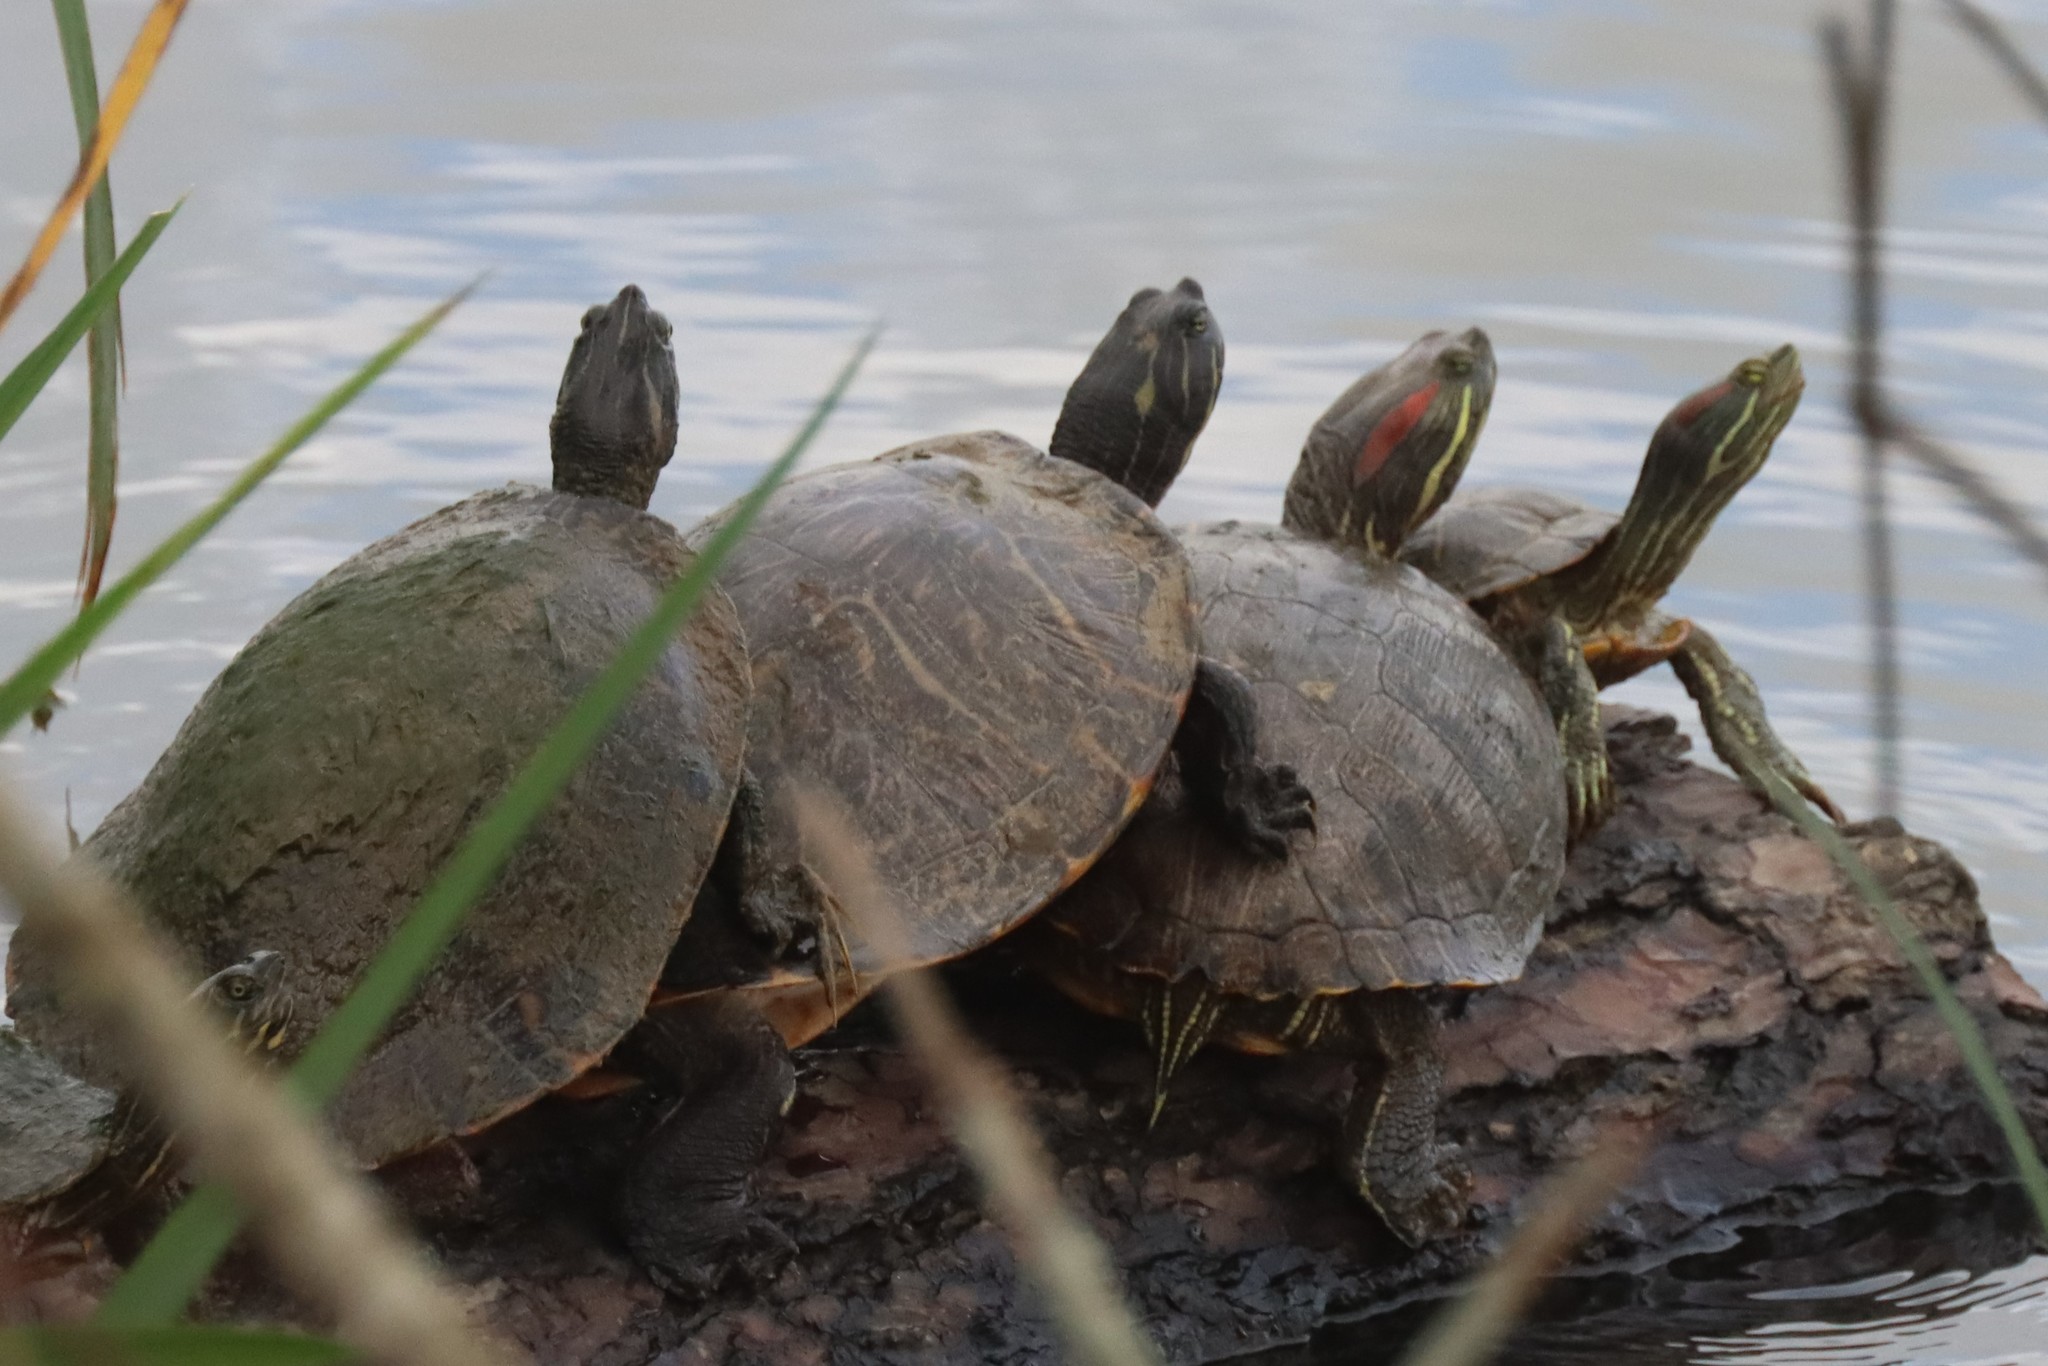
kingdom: Animalia
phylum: Chordata
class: Testudines
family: Emydidae
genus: Trachemys
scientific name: Trachemys scripta
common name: Slider
